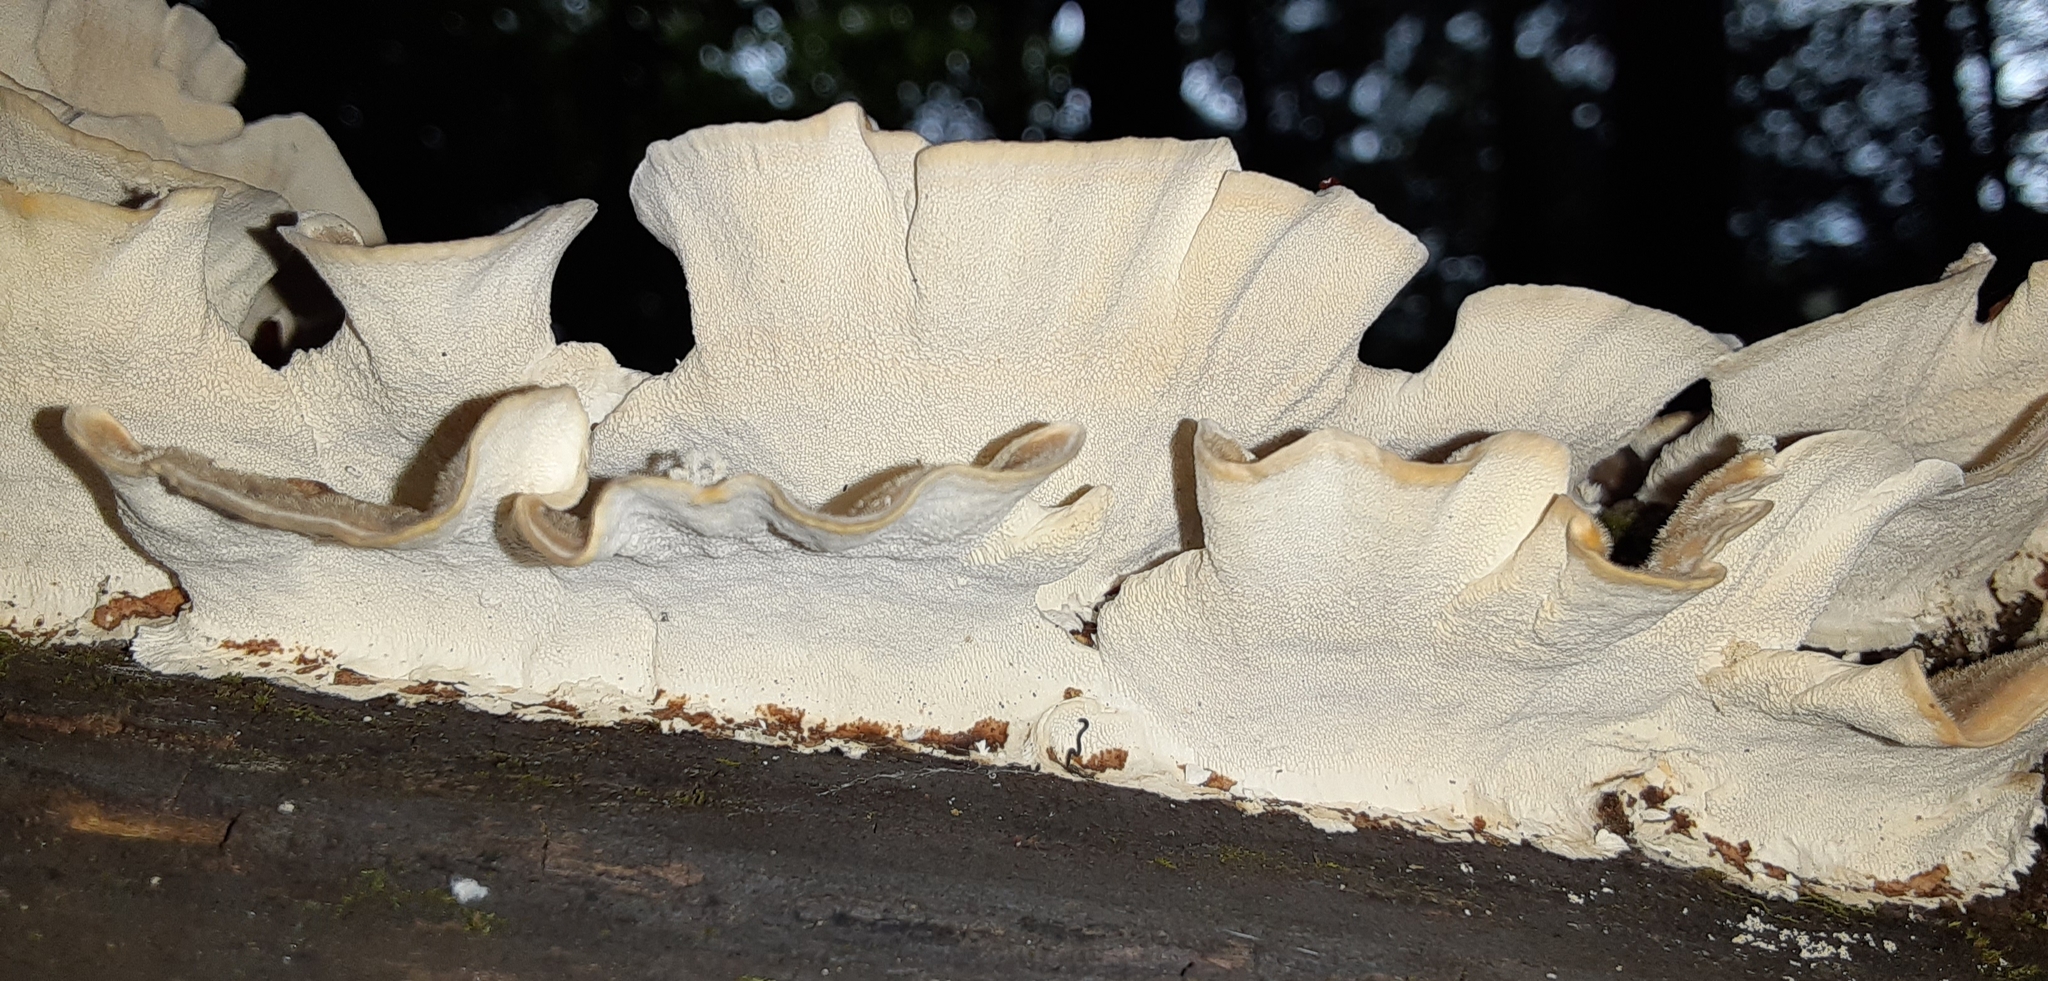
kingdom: Fungi
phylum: Basidiomycota
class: Agaricomycetes
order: Polyporales
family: Polyporaceae
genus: Trametes
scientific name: Trametes versicolor
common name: Turkeytail
